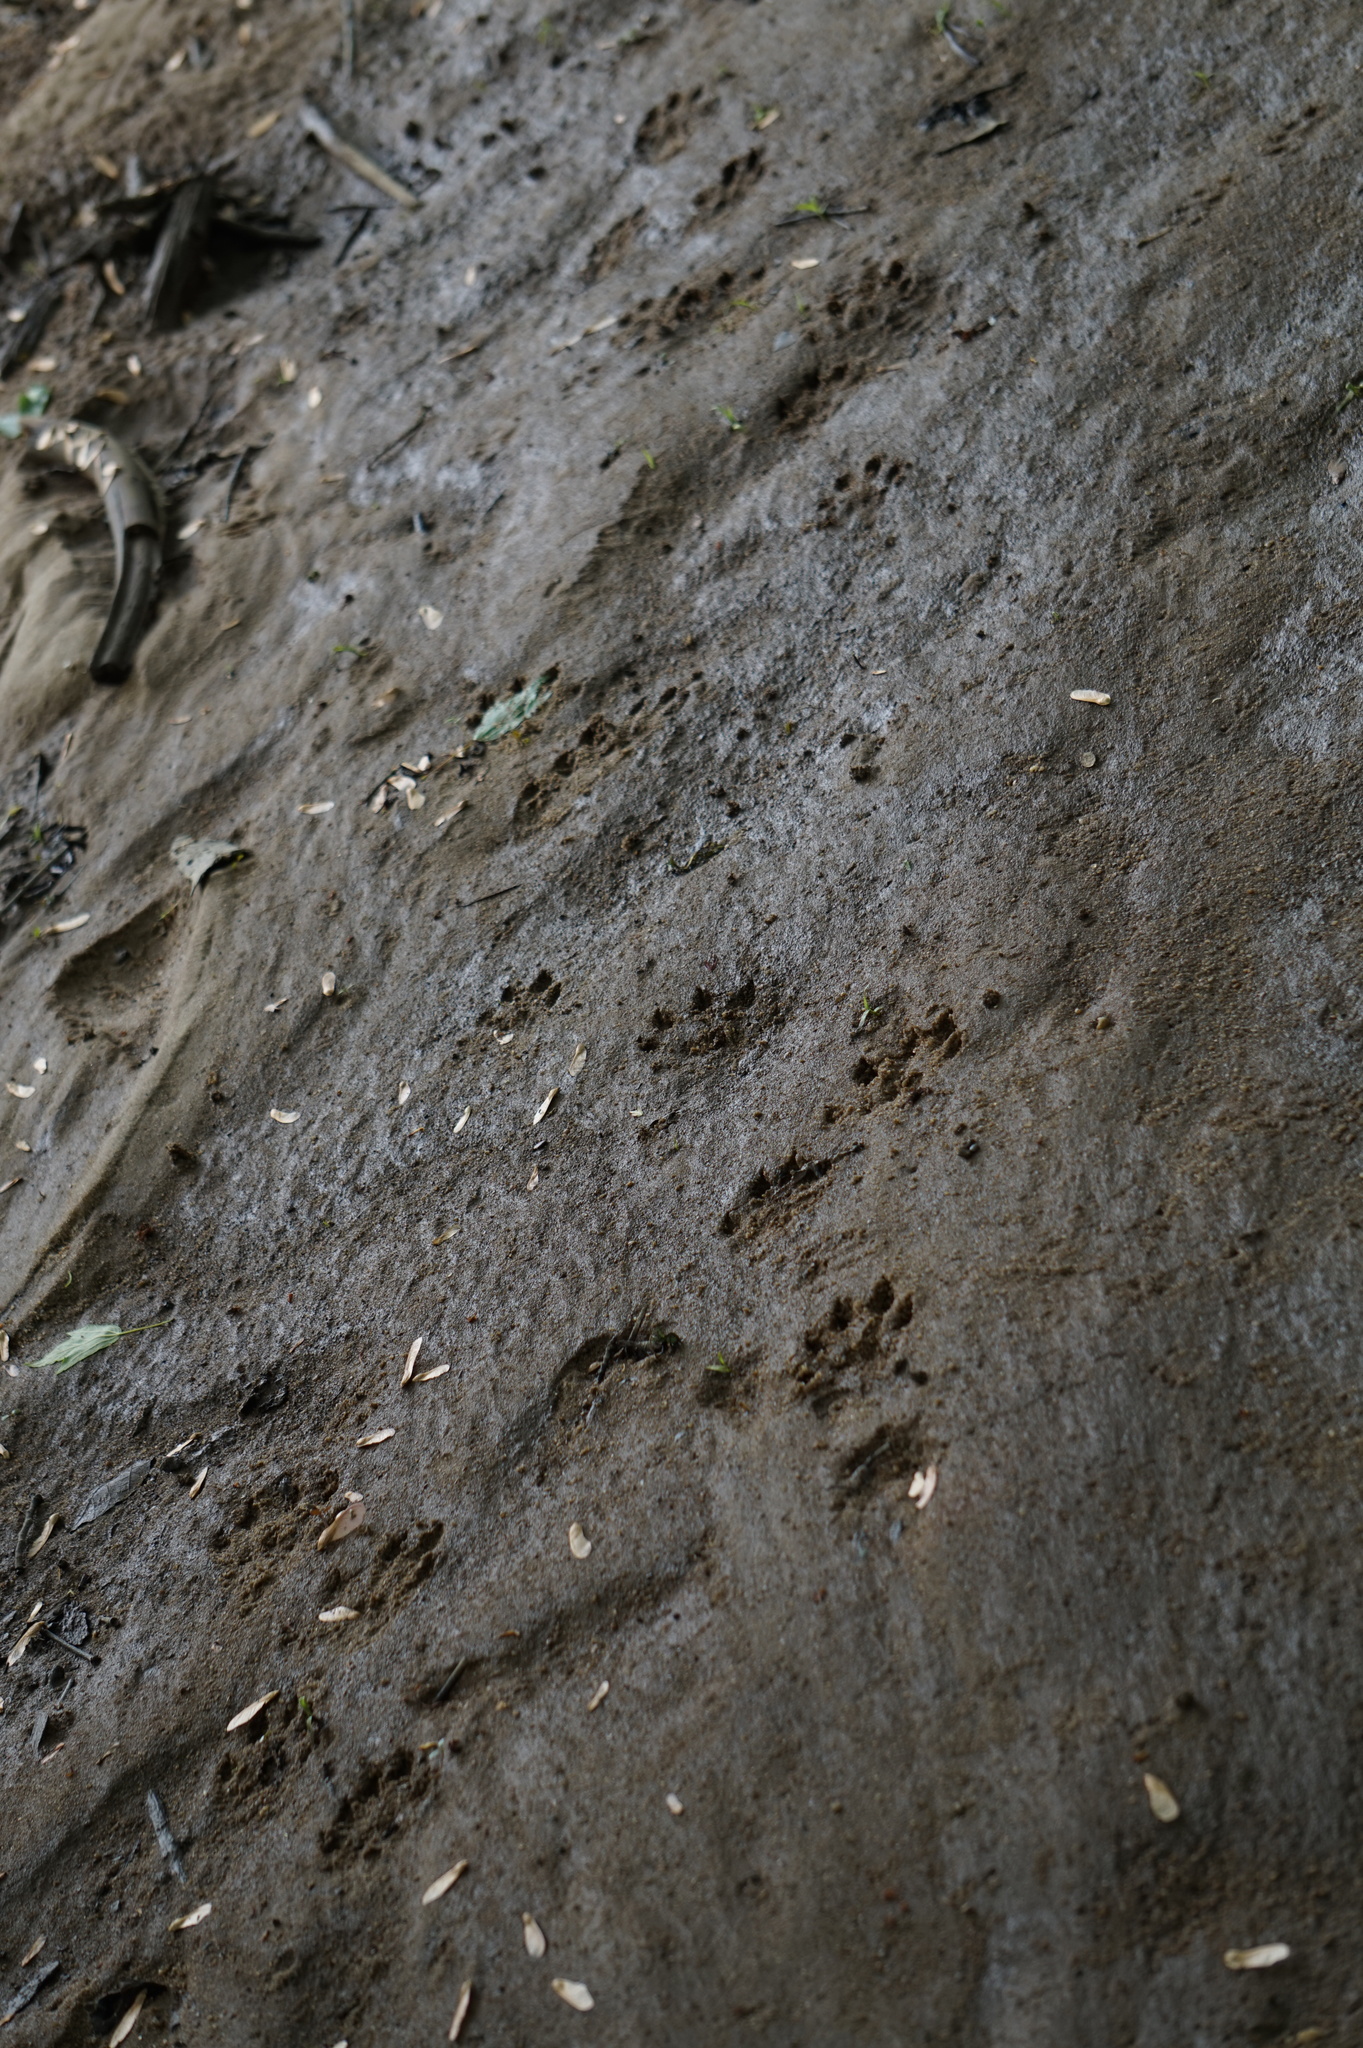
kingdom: Animalia
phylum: Chordata
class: Mammalia
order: Carnivora
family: Mustelidae
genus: Lontra
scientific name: Lontra canadensis
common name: North american river otter
